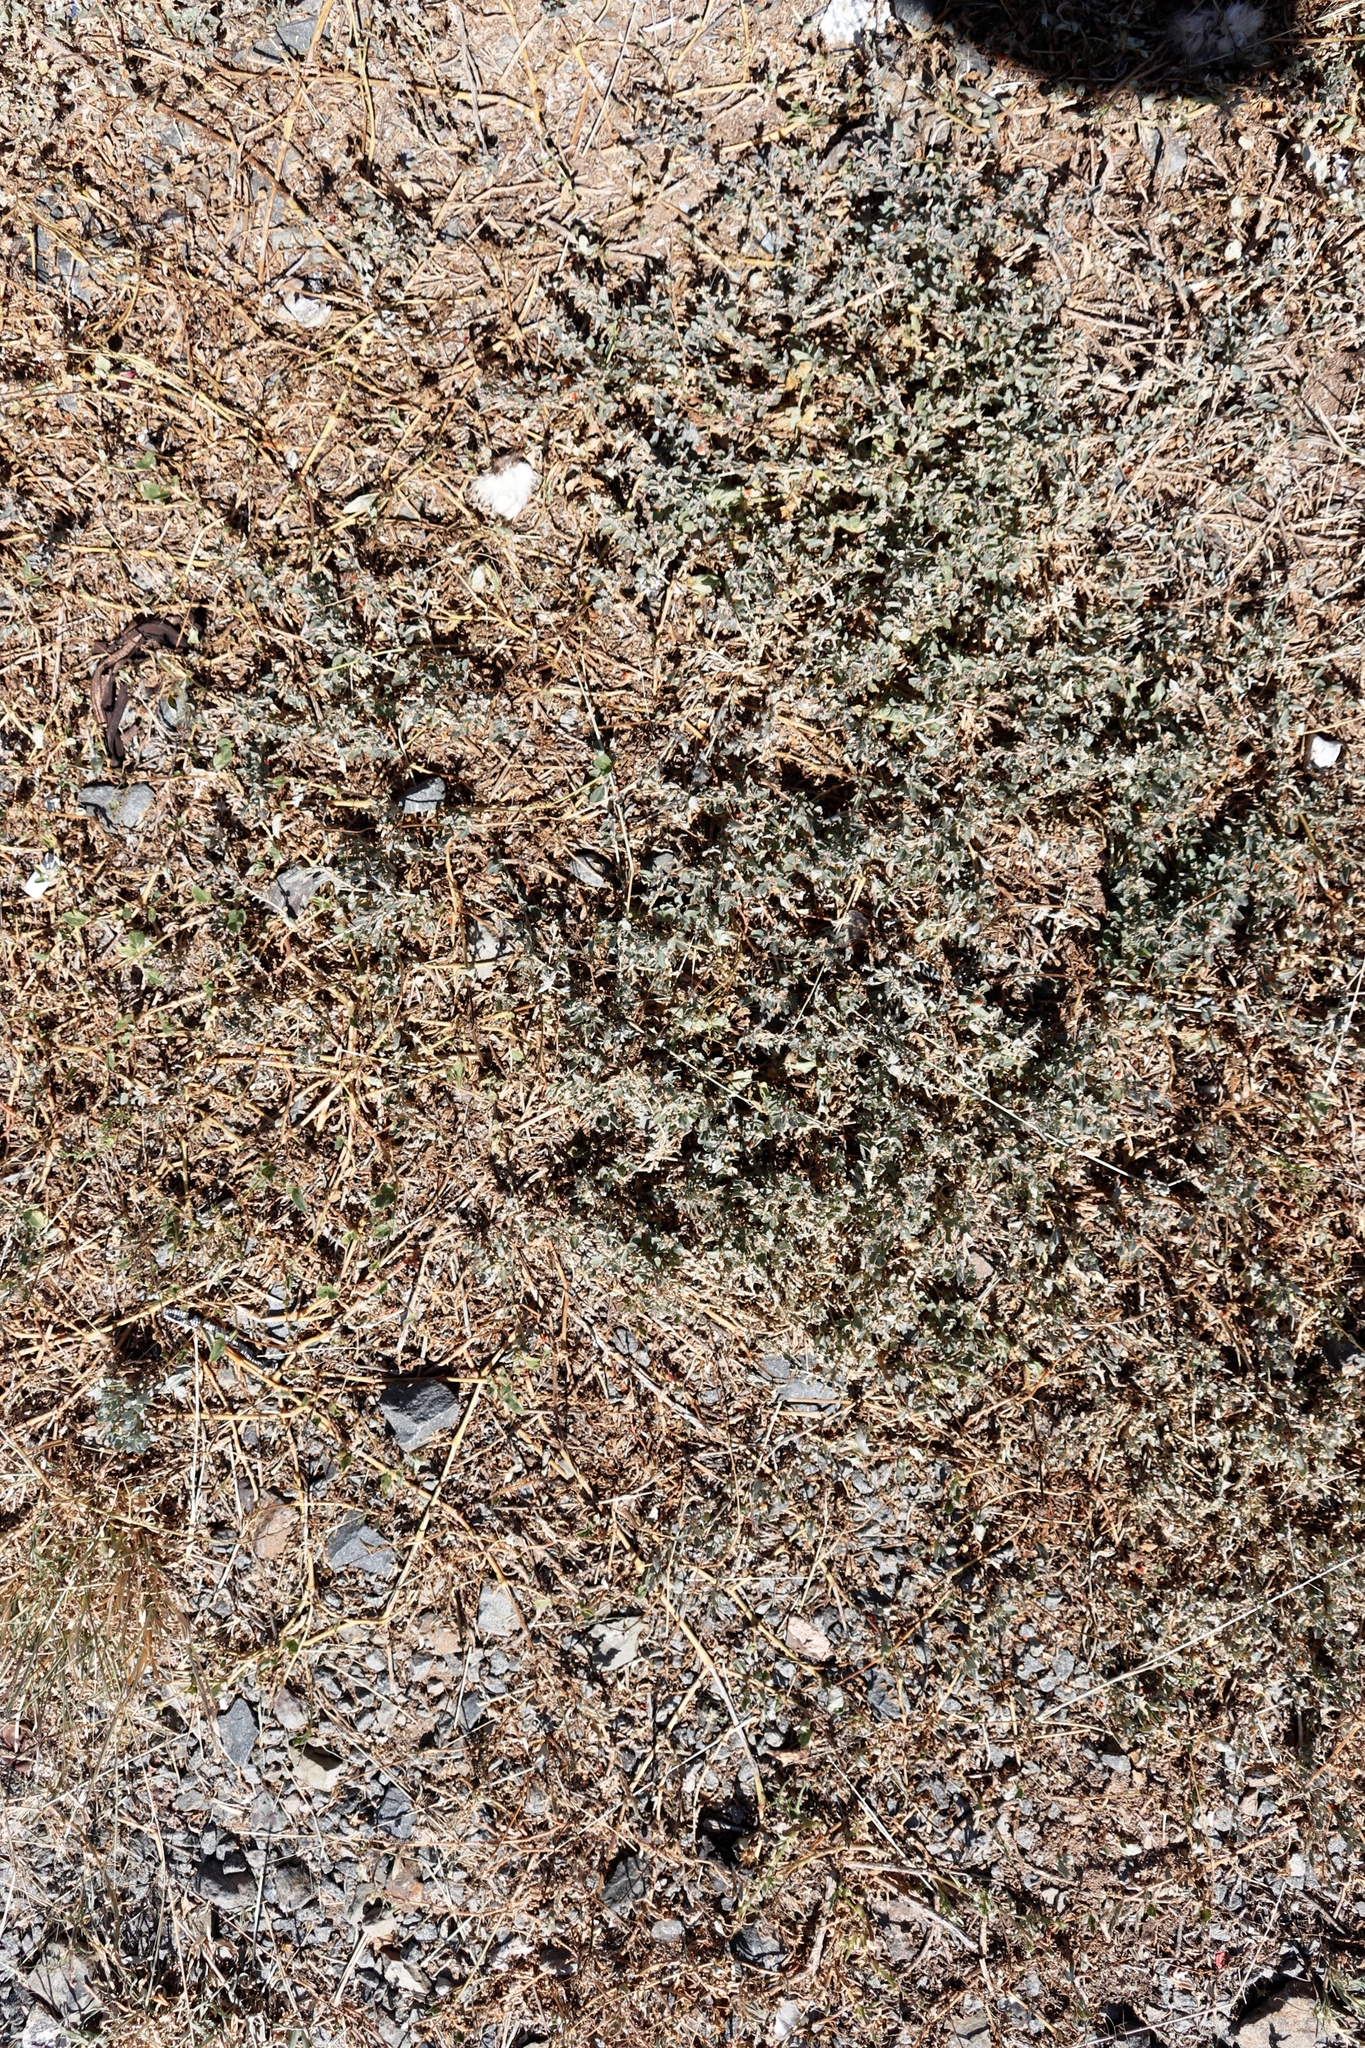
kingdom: Plantae
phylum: Tracheophyta
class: Magnoliopsida
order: Caryophyllales
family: Amaranthaceae
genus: Atriplex
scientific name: Atriplex semibaccata
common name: Australian saltbush
